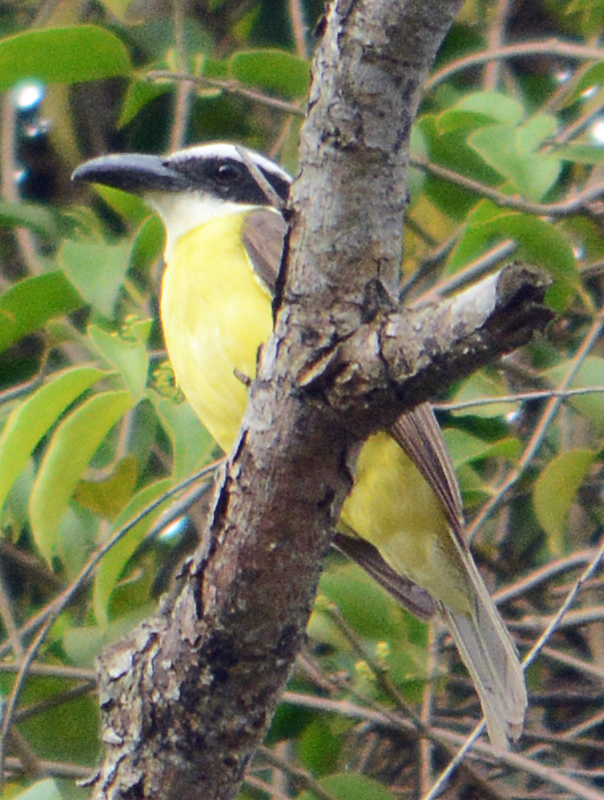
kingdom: Animalia
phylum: Chordata
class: Aves
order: Passeriformes
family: Tyrannidae
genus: Megarynchus
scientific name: Megarynchus pitangua
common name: Boat-billed flycatcher
